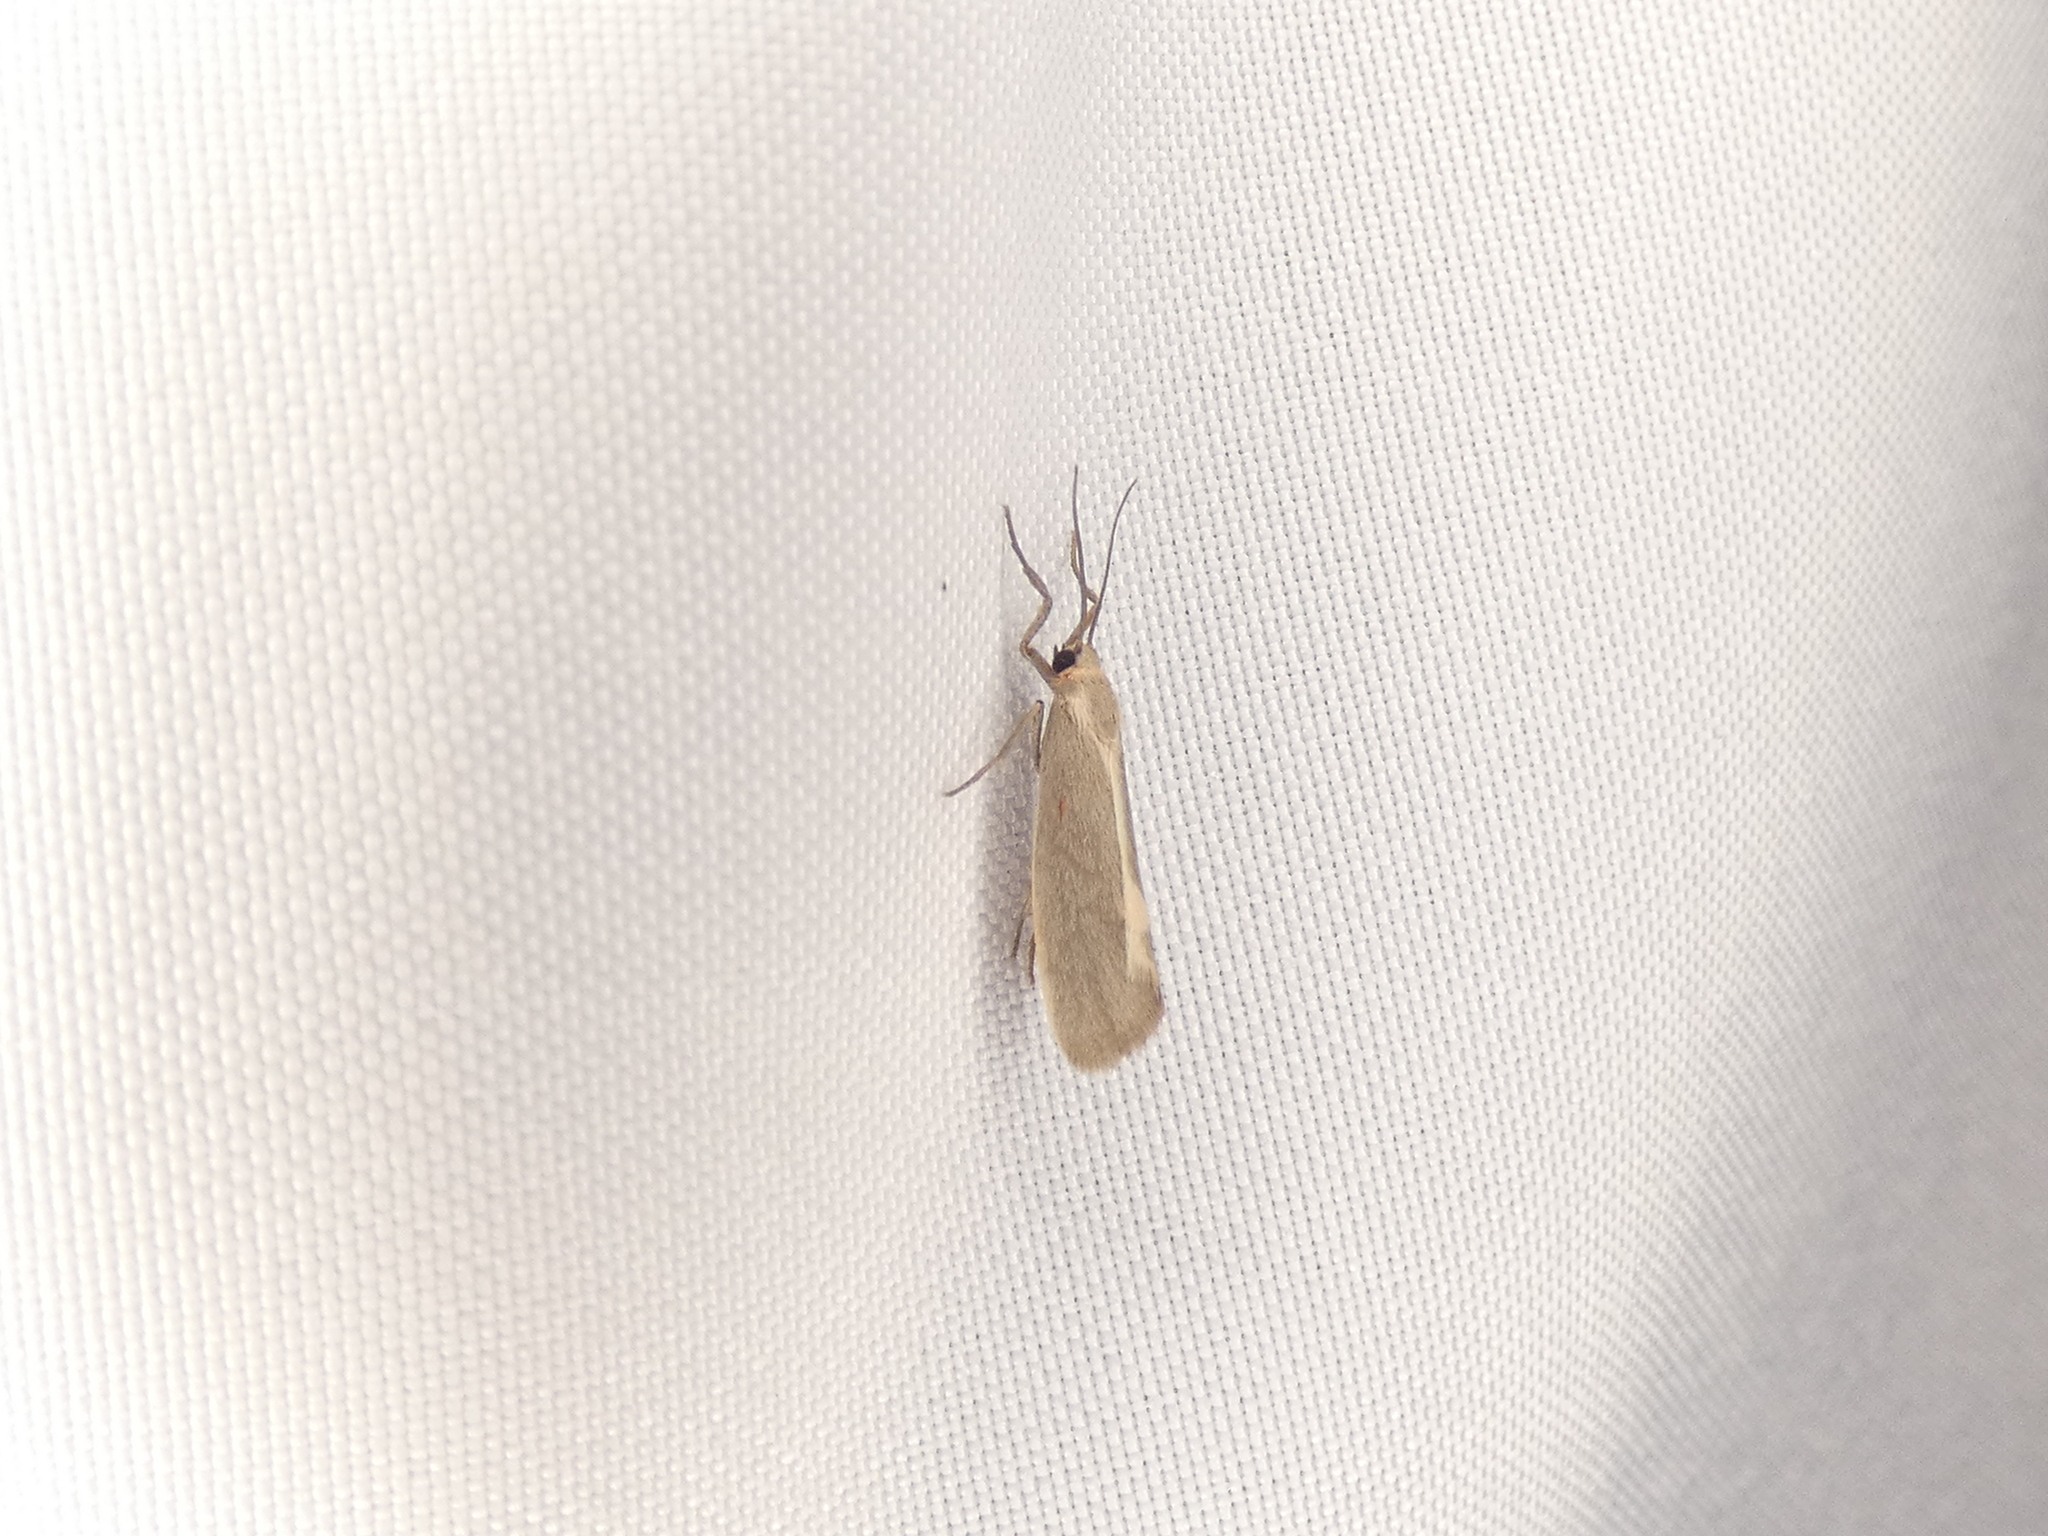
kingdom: Animalia
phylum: Arthropoda
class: Insecta
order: Lepidoptera
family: Erebidae
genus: Cisthene
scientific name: Cisthene plumbea
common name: Lead colored lichen moth
